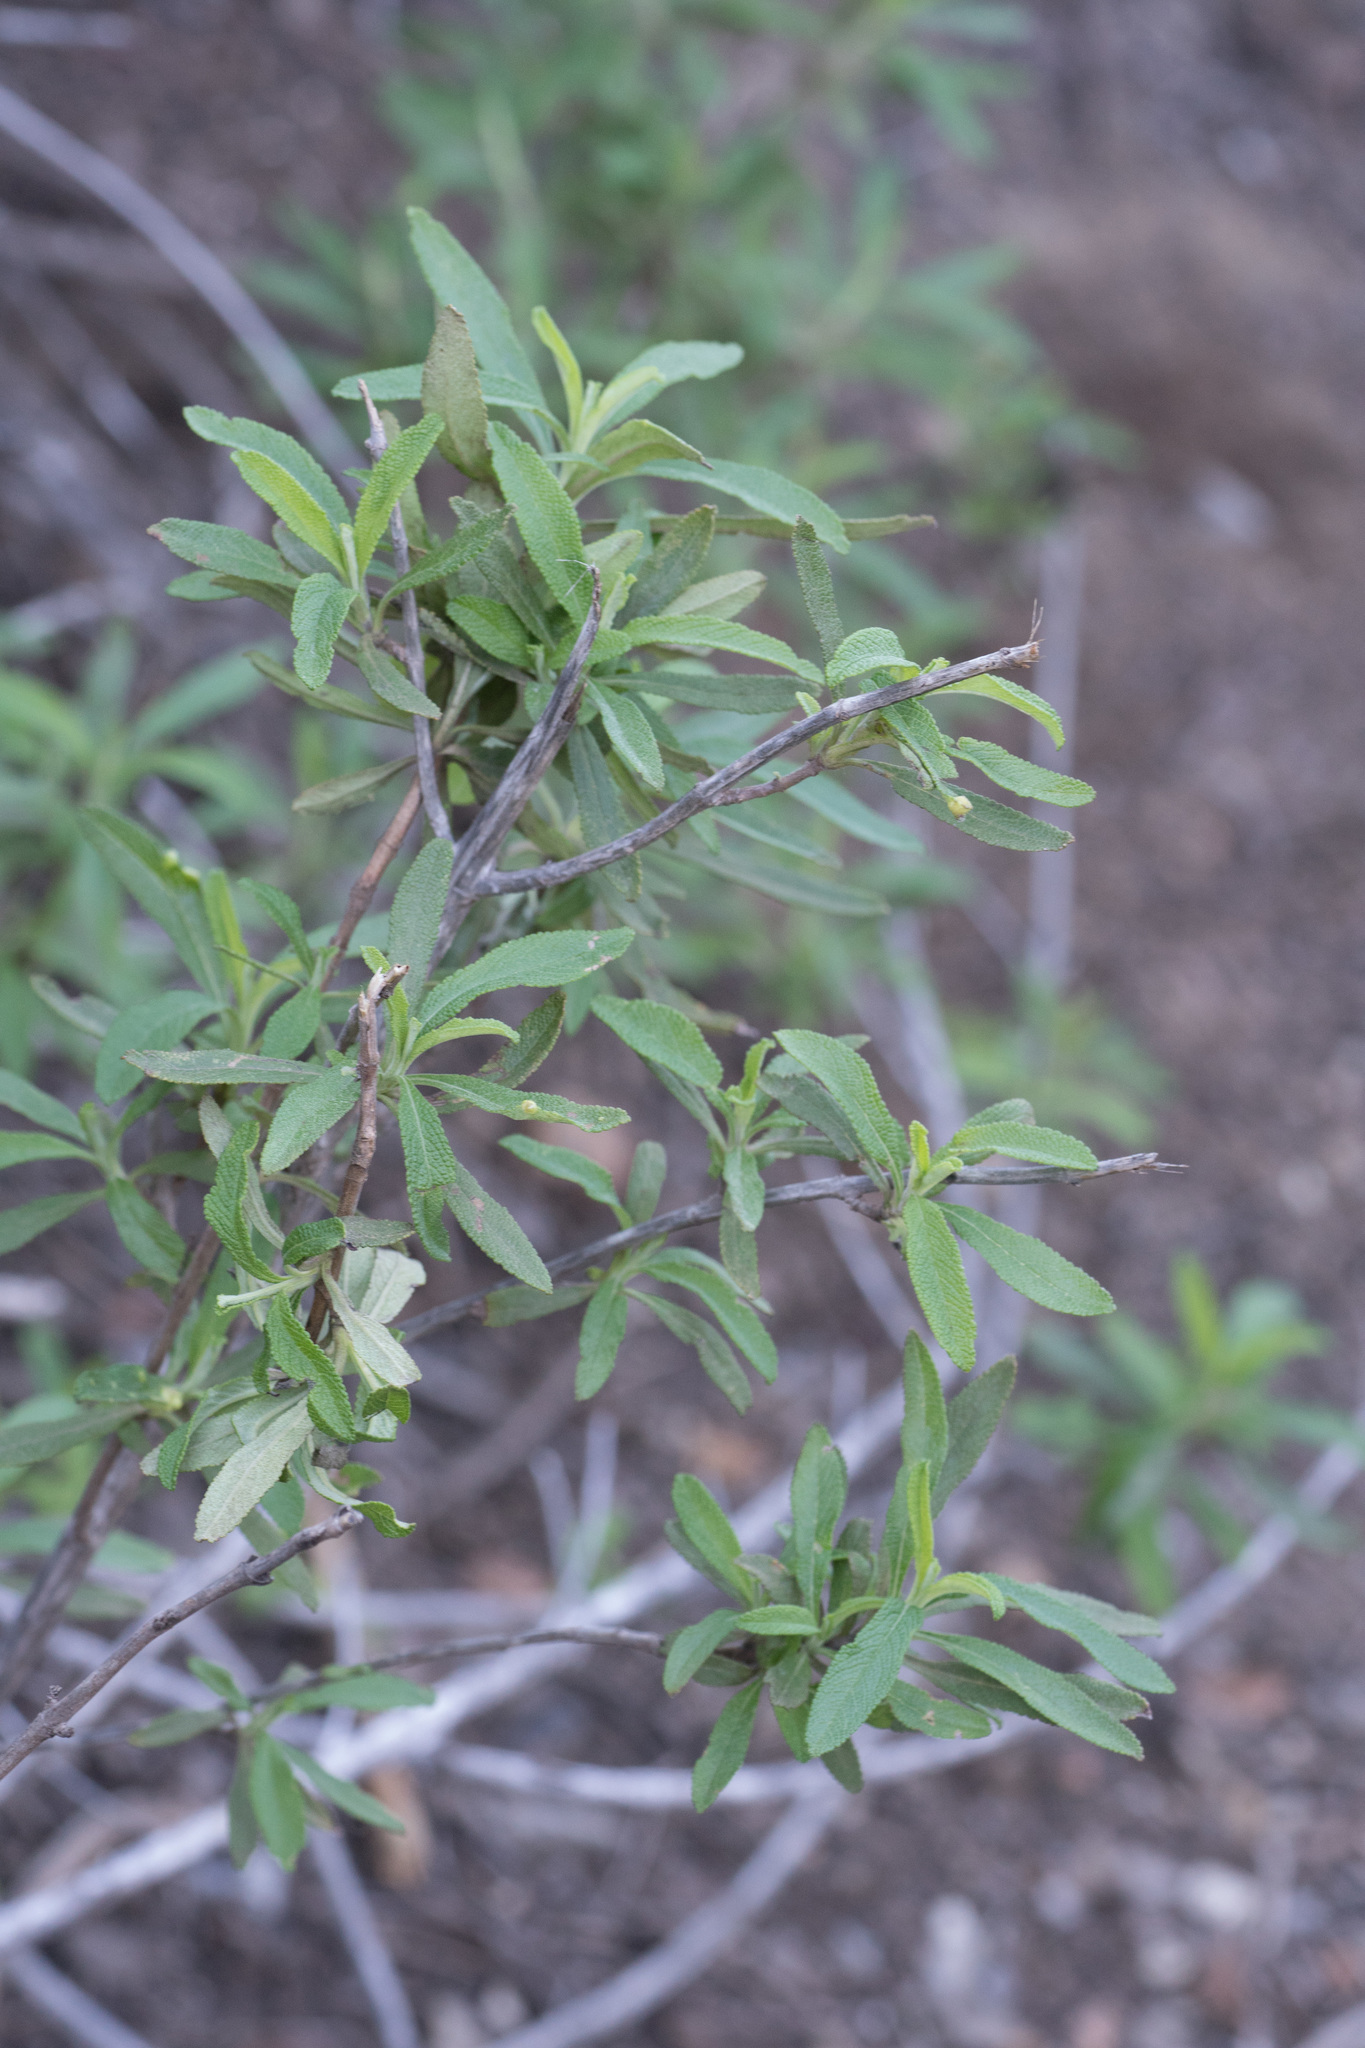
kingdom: Plantae
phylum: Tracheophyta
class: Magnoliopsida
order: Lamiales
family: Lamiaceae
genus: Salvia
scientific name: Salvia mellifera
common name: Black sage
